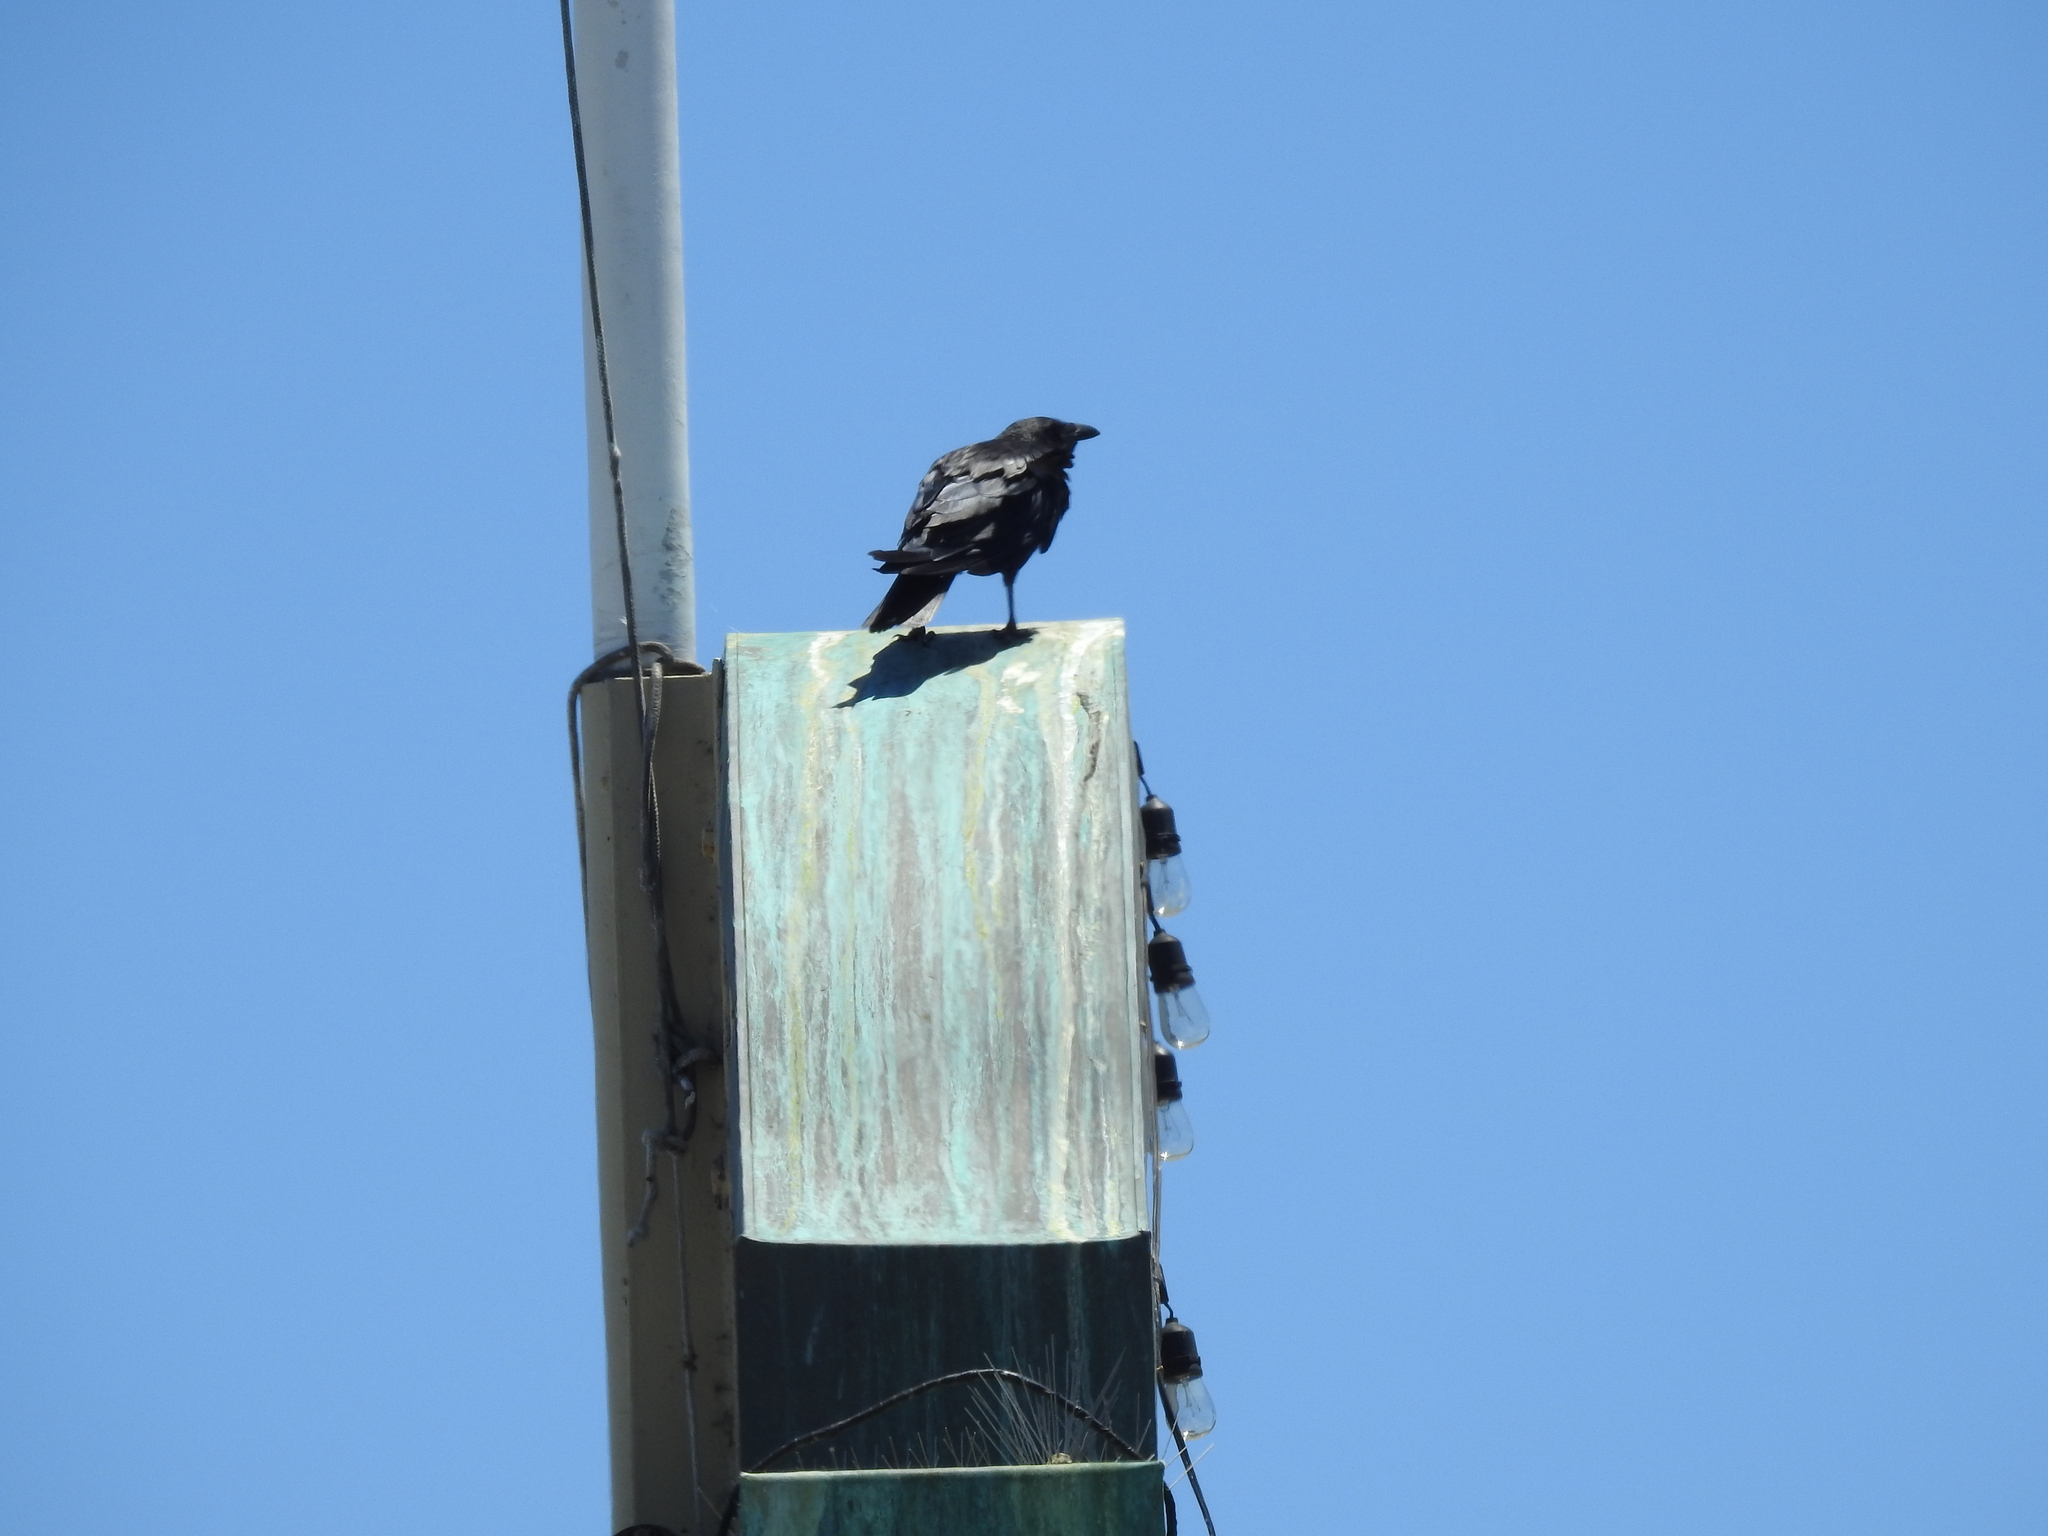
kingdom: Animalia
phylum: Chordata
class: Aves
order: Passeriformes
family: Corvidae
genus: Corvus
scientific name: Corvus corax
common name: Common raven
